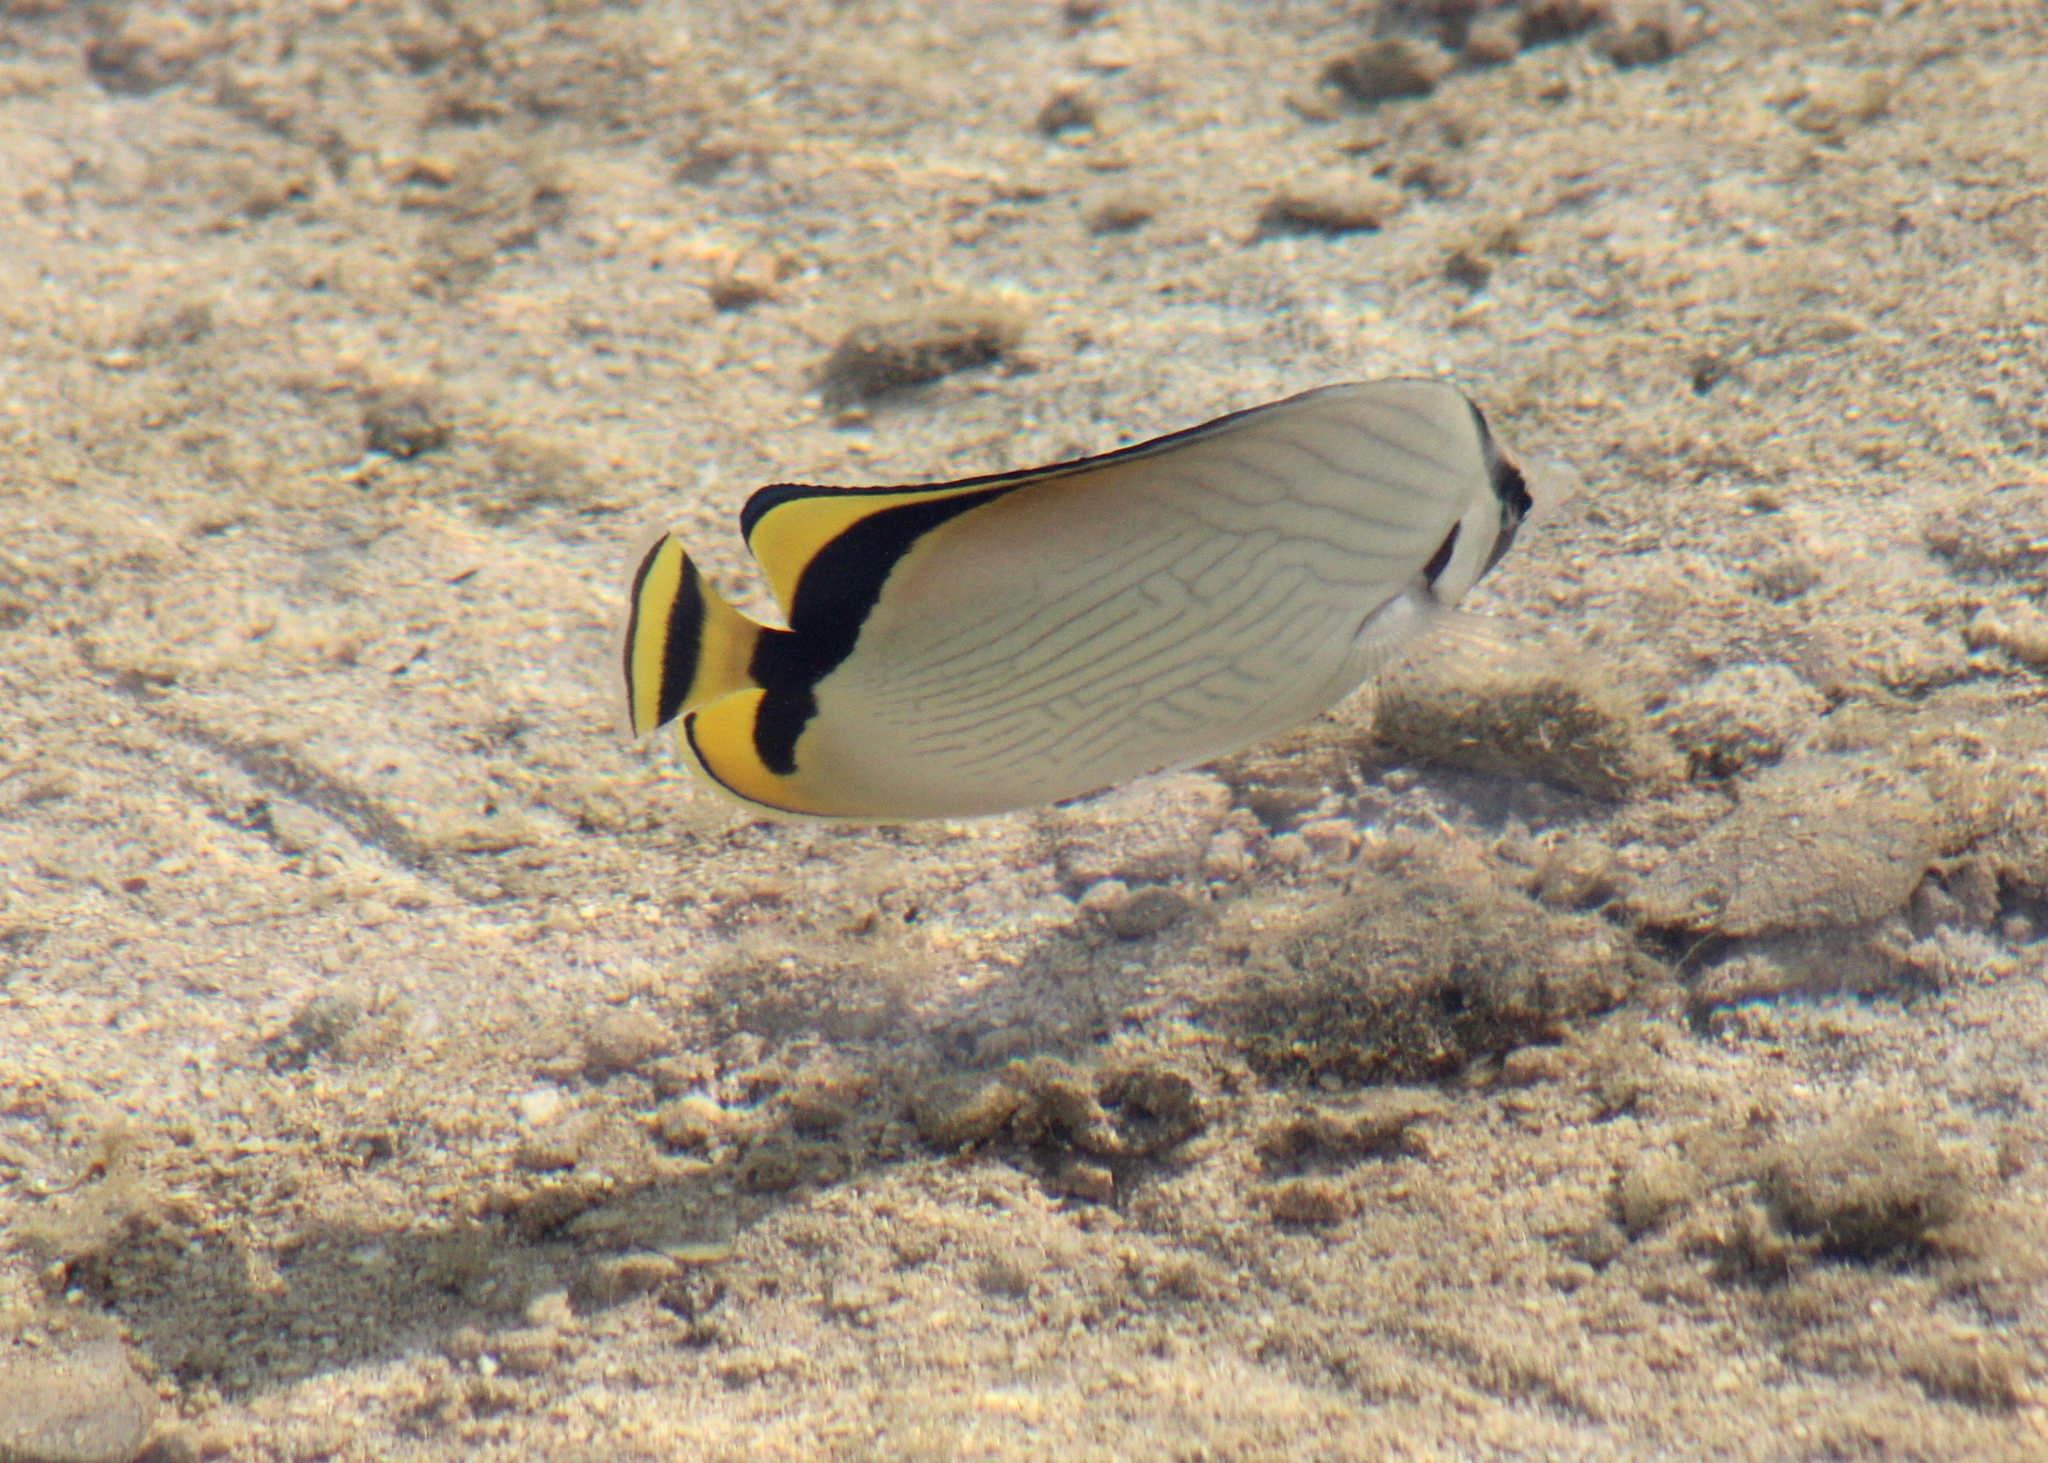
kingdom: Animalia
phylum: Chordata
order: Perciformes
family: Chaetodontidae
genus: Chaetodon
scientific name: Chaetodon vagabundus
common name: Vagabond butterflyfish
